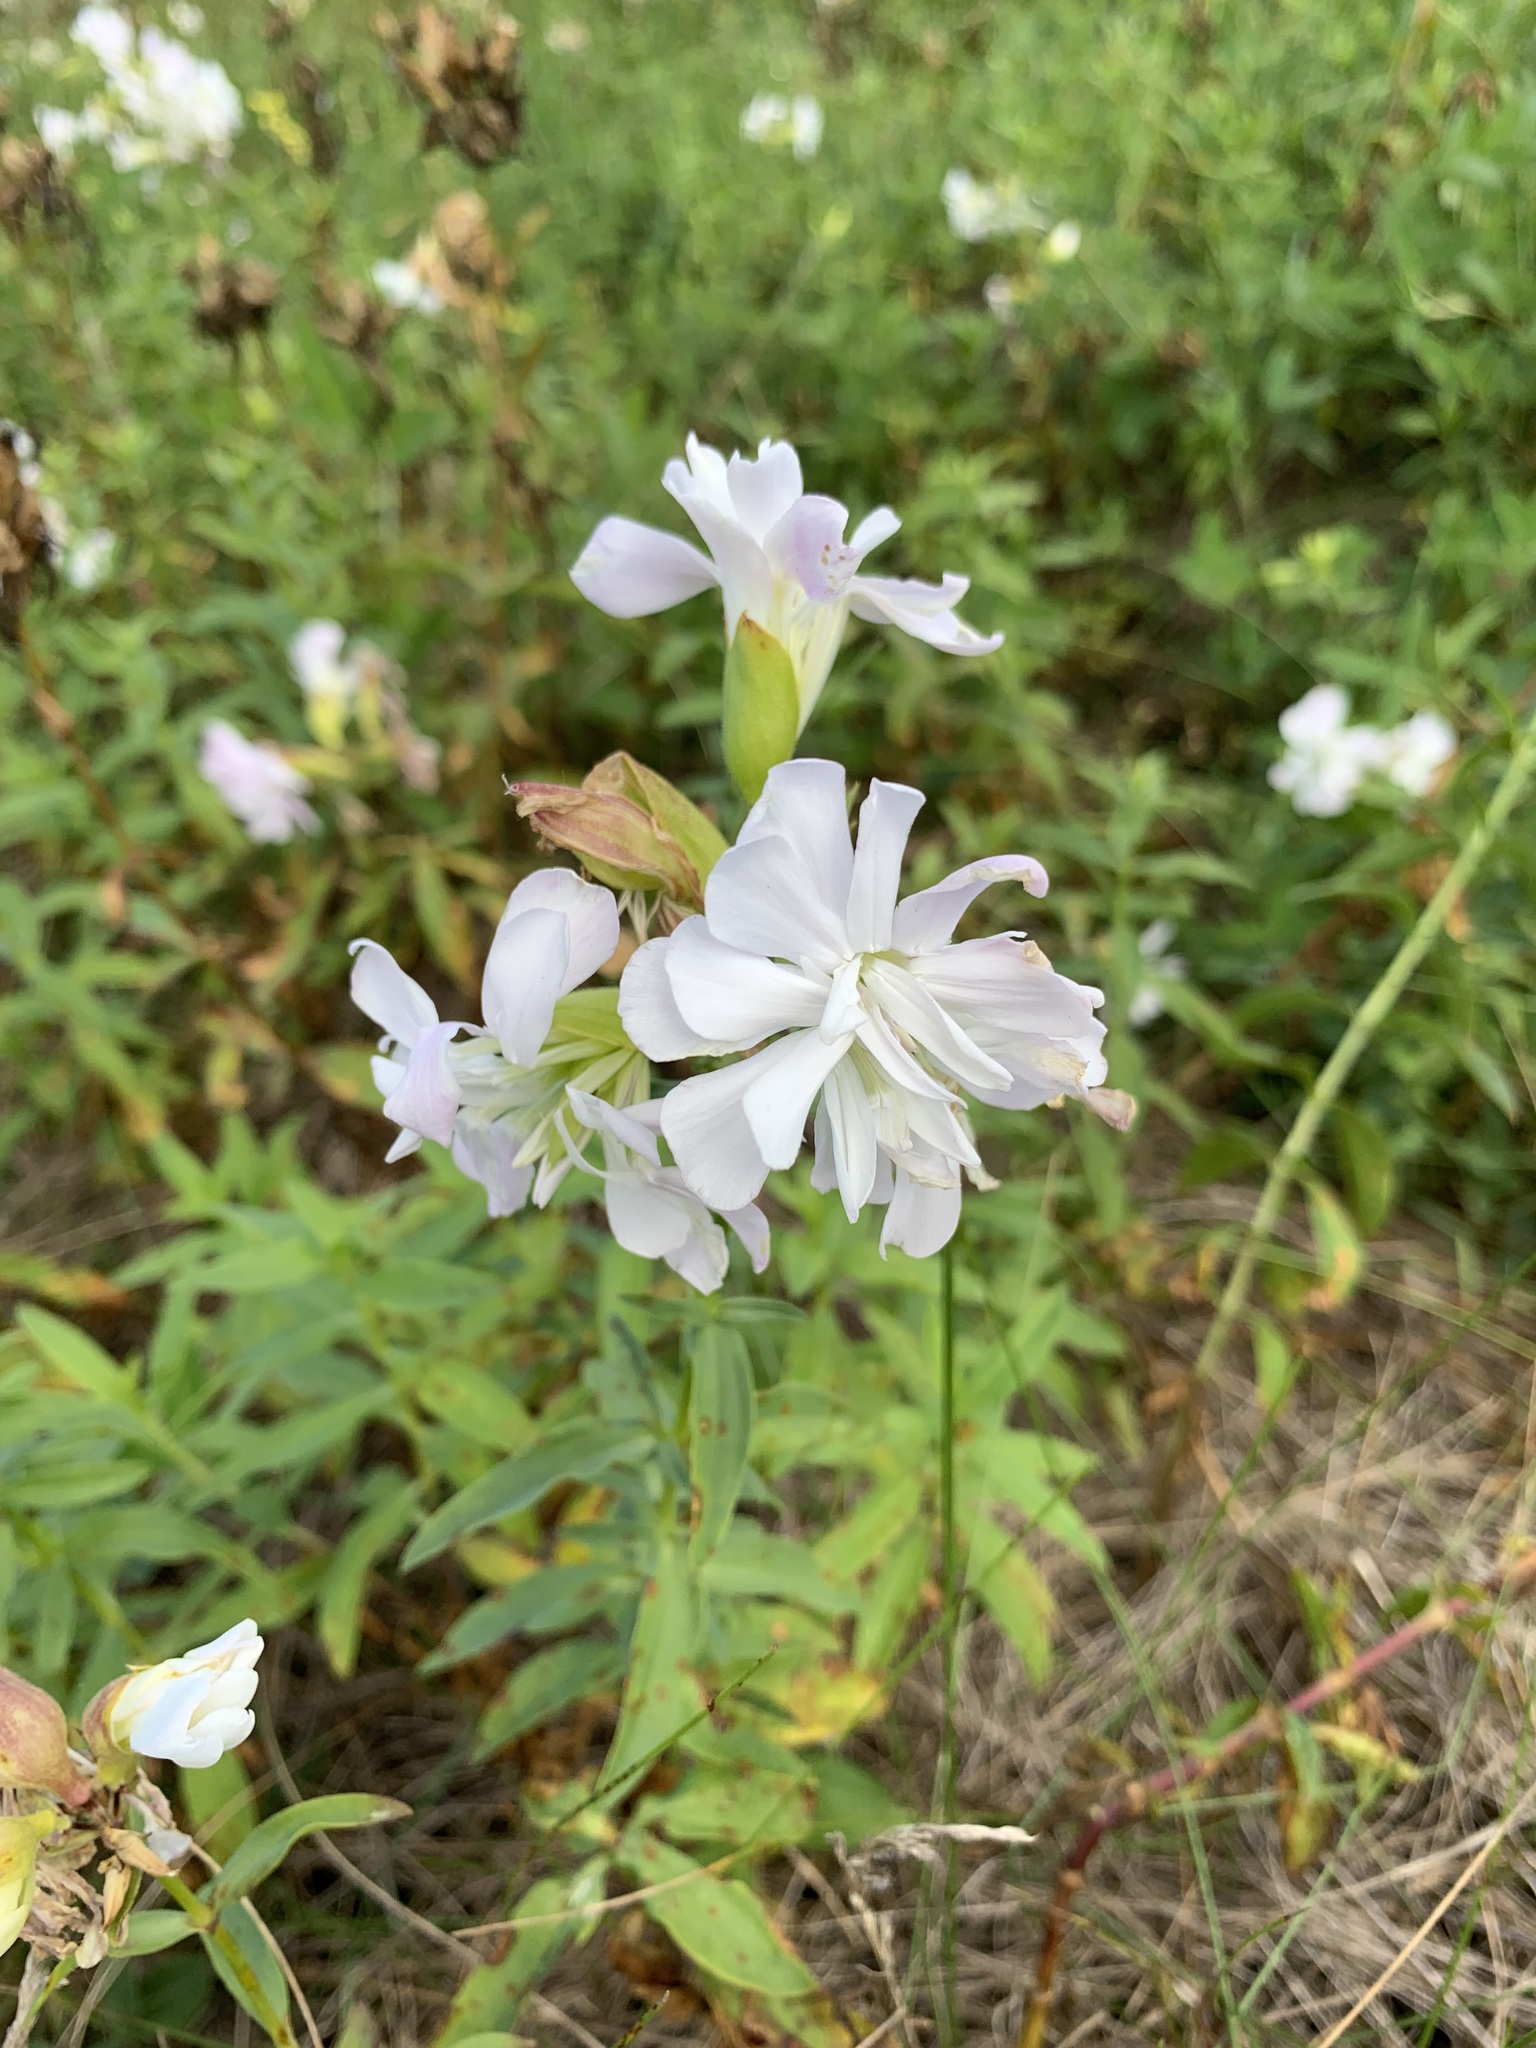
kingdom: Plantae
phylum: Tracheophyta
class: Magnoliopsida
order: Caryophyllales
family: Caryophyllaceae
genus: Saponaria
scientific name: Saponaria officinalis
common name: Soapwort
